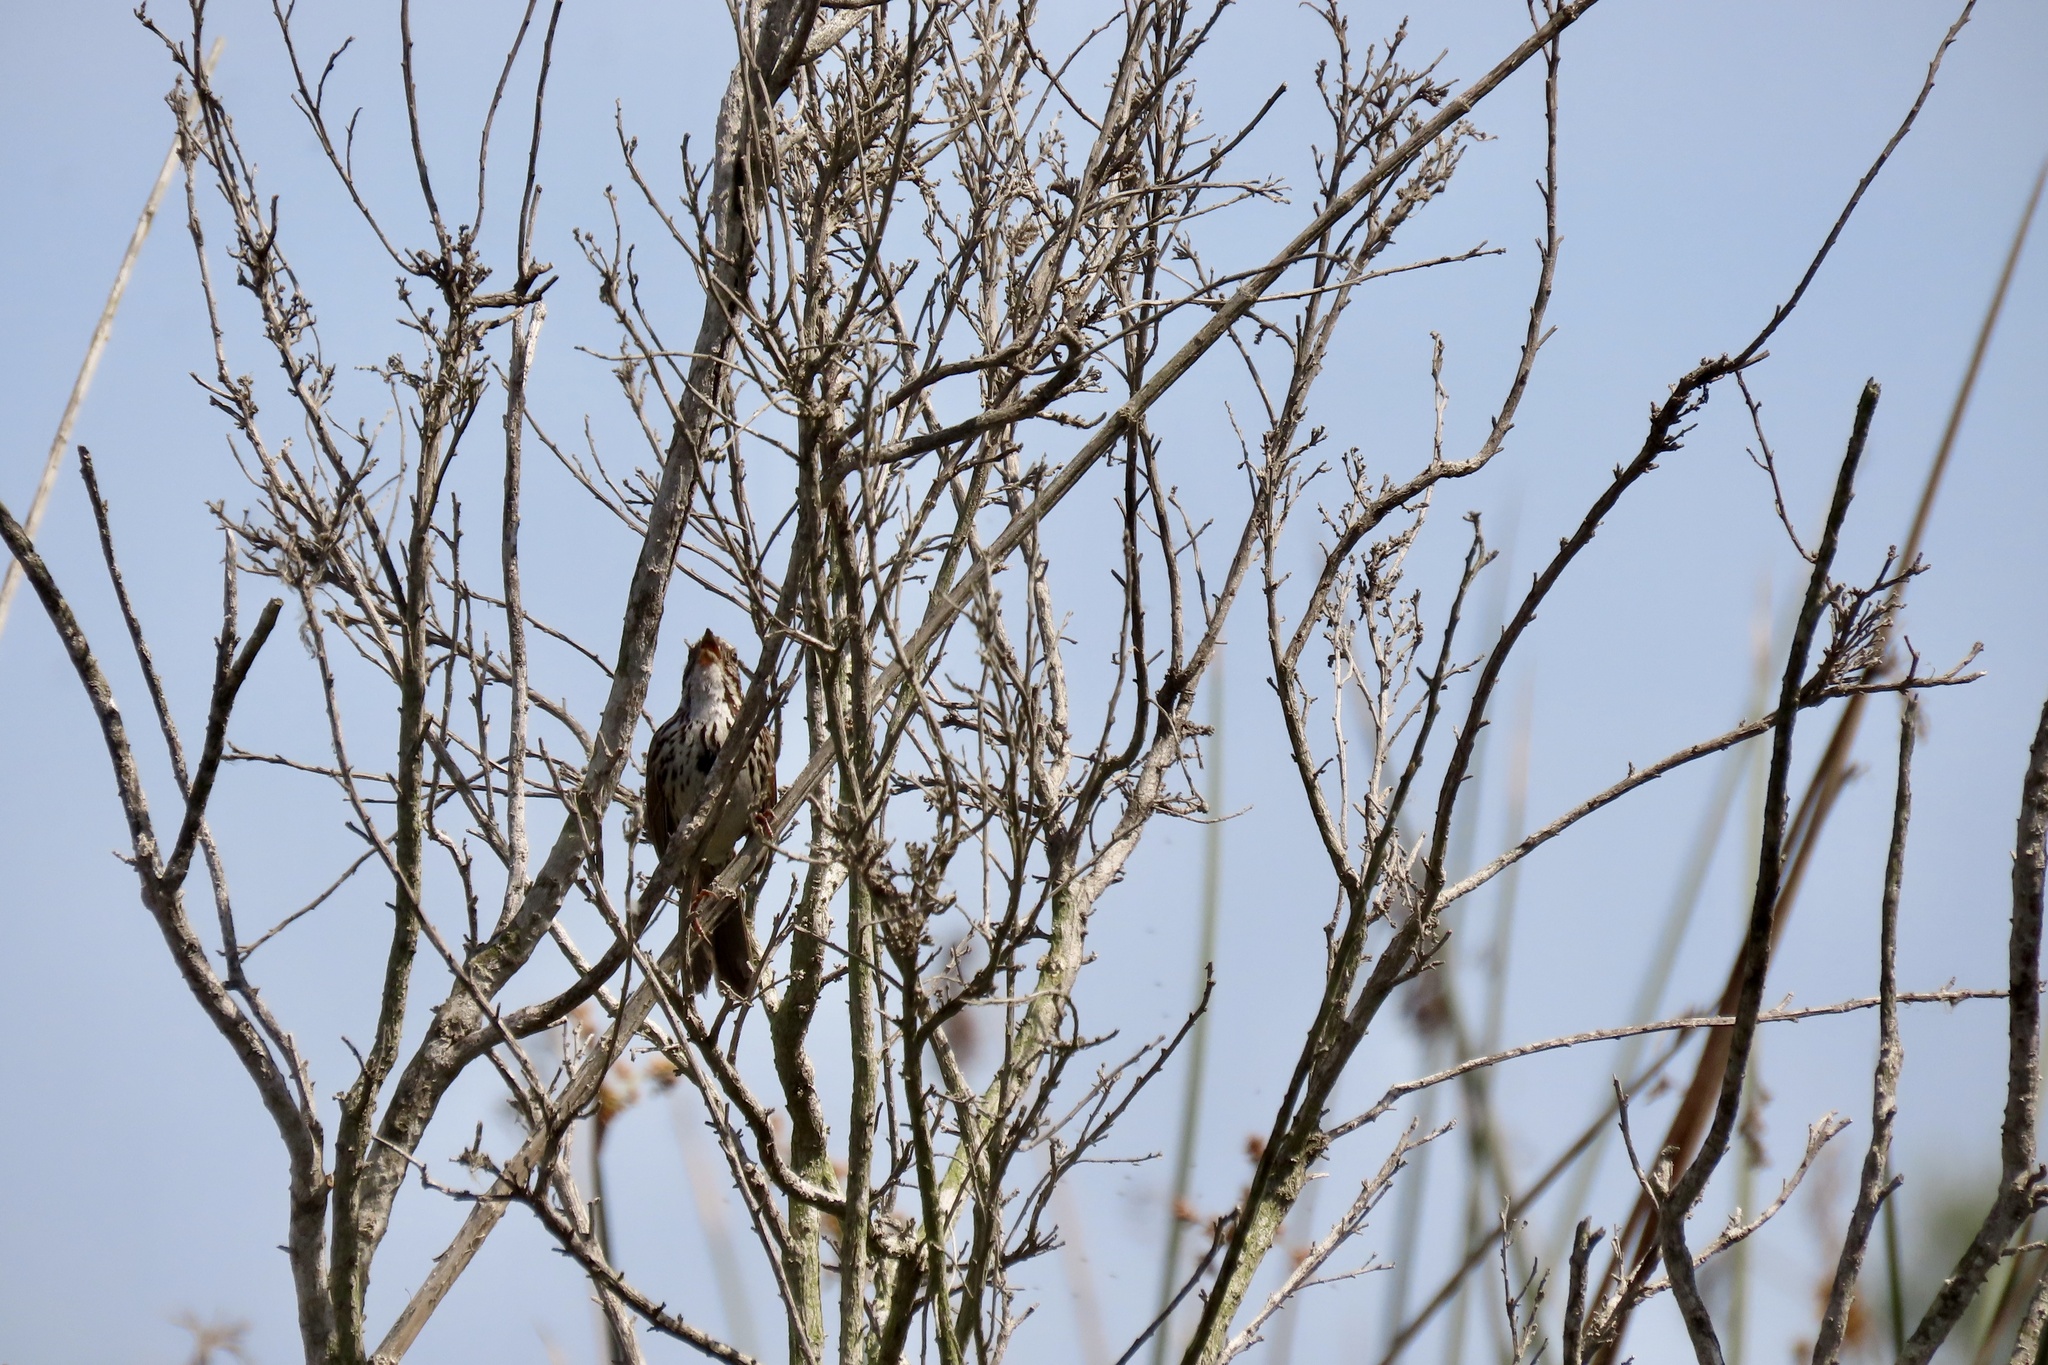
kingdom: Animalia
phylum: Chordata
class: Aves
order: Passeriformes
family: Passerellidae
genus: Melospiza
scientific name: Melospiza melodia
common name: Song sparrow
